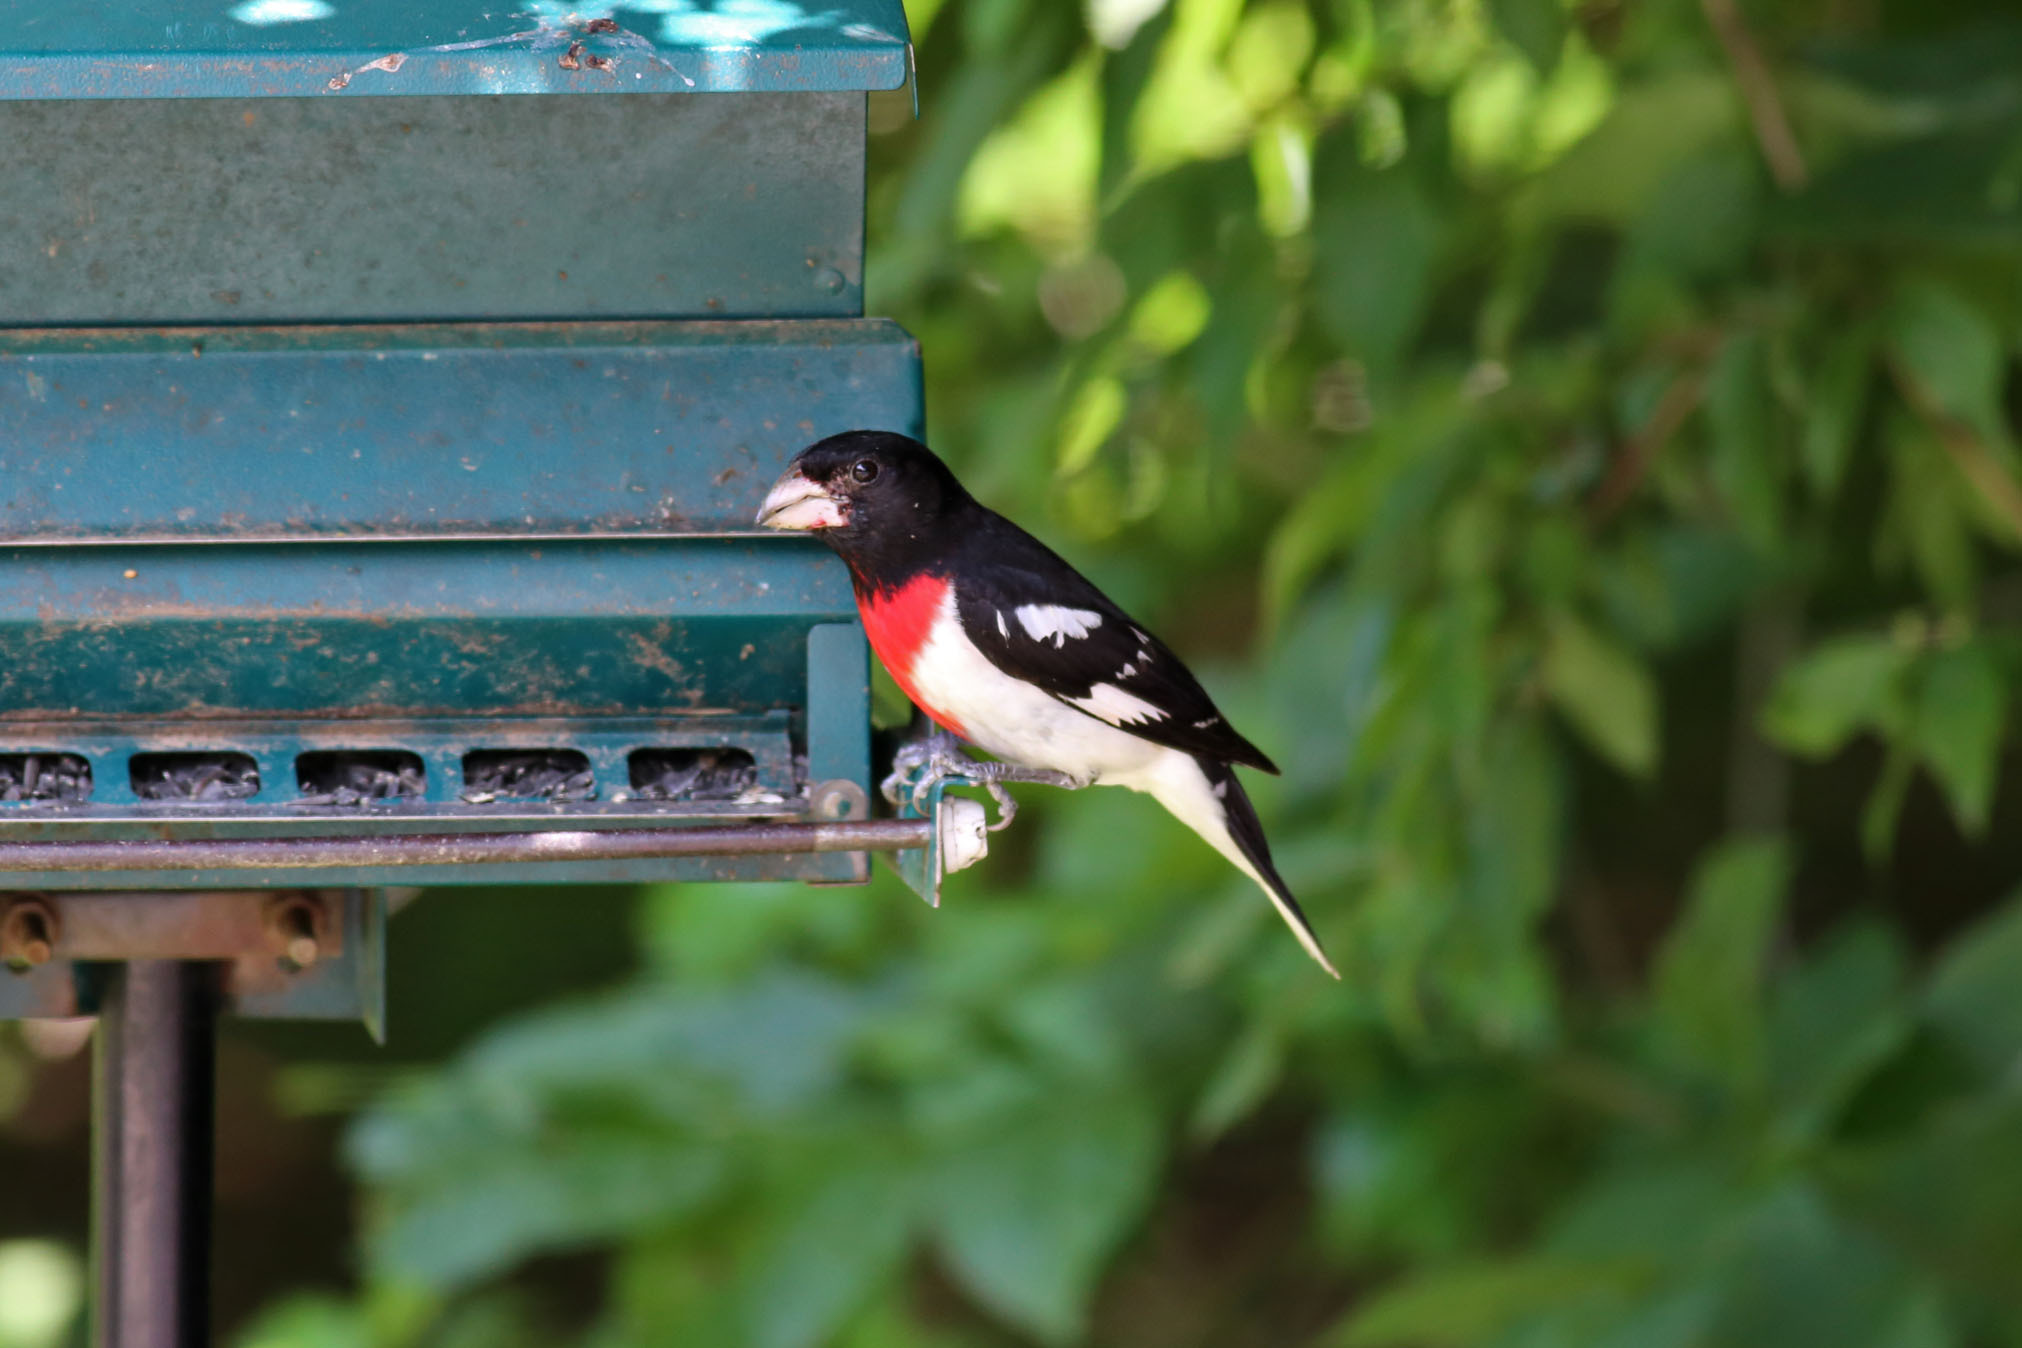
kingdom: Animalia
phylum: Chordata
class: Aves
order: Passeriformes
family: Cardinalidae
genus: Pheucticus
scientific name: Pheucticus ludovicianus
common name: Rose-breasted grosbeak
